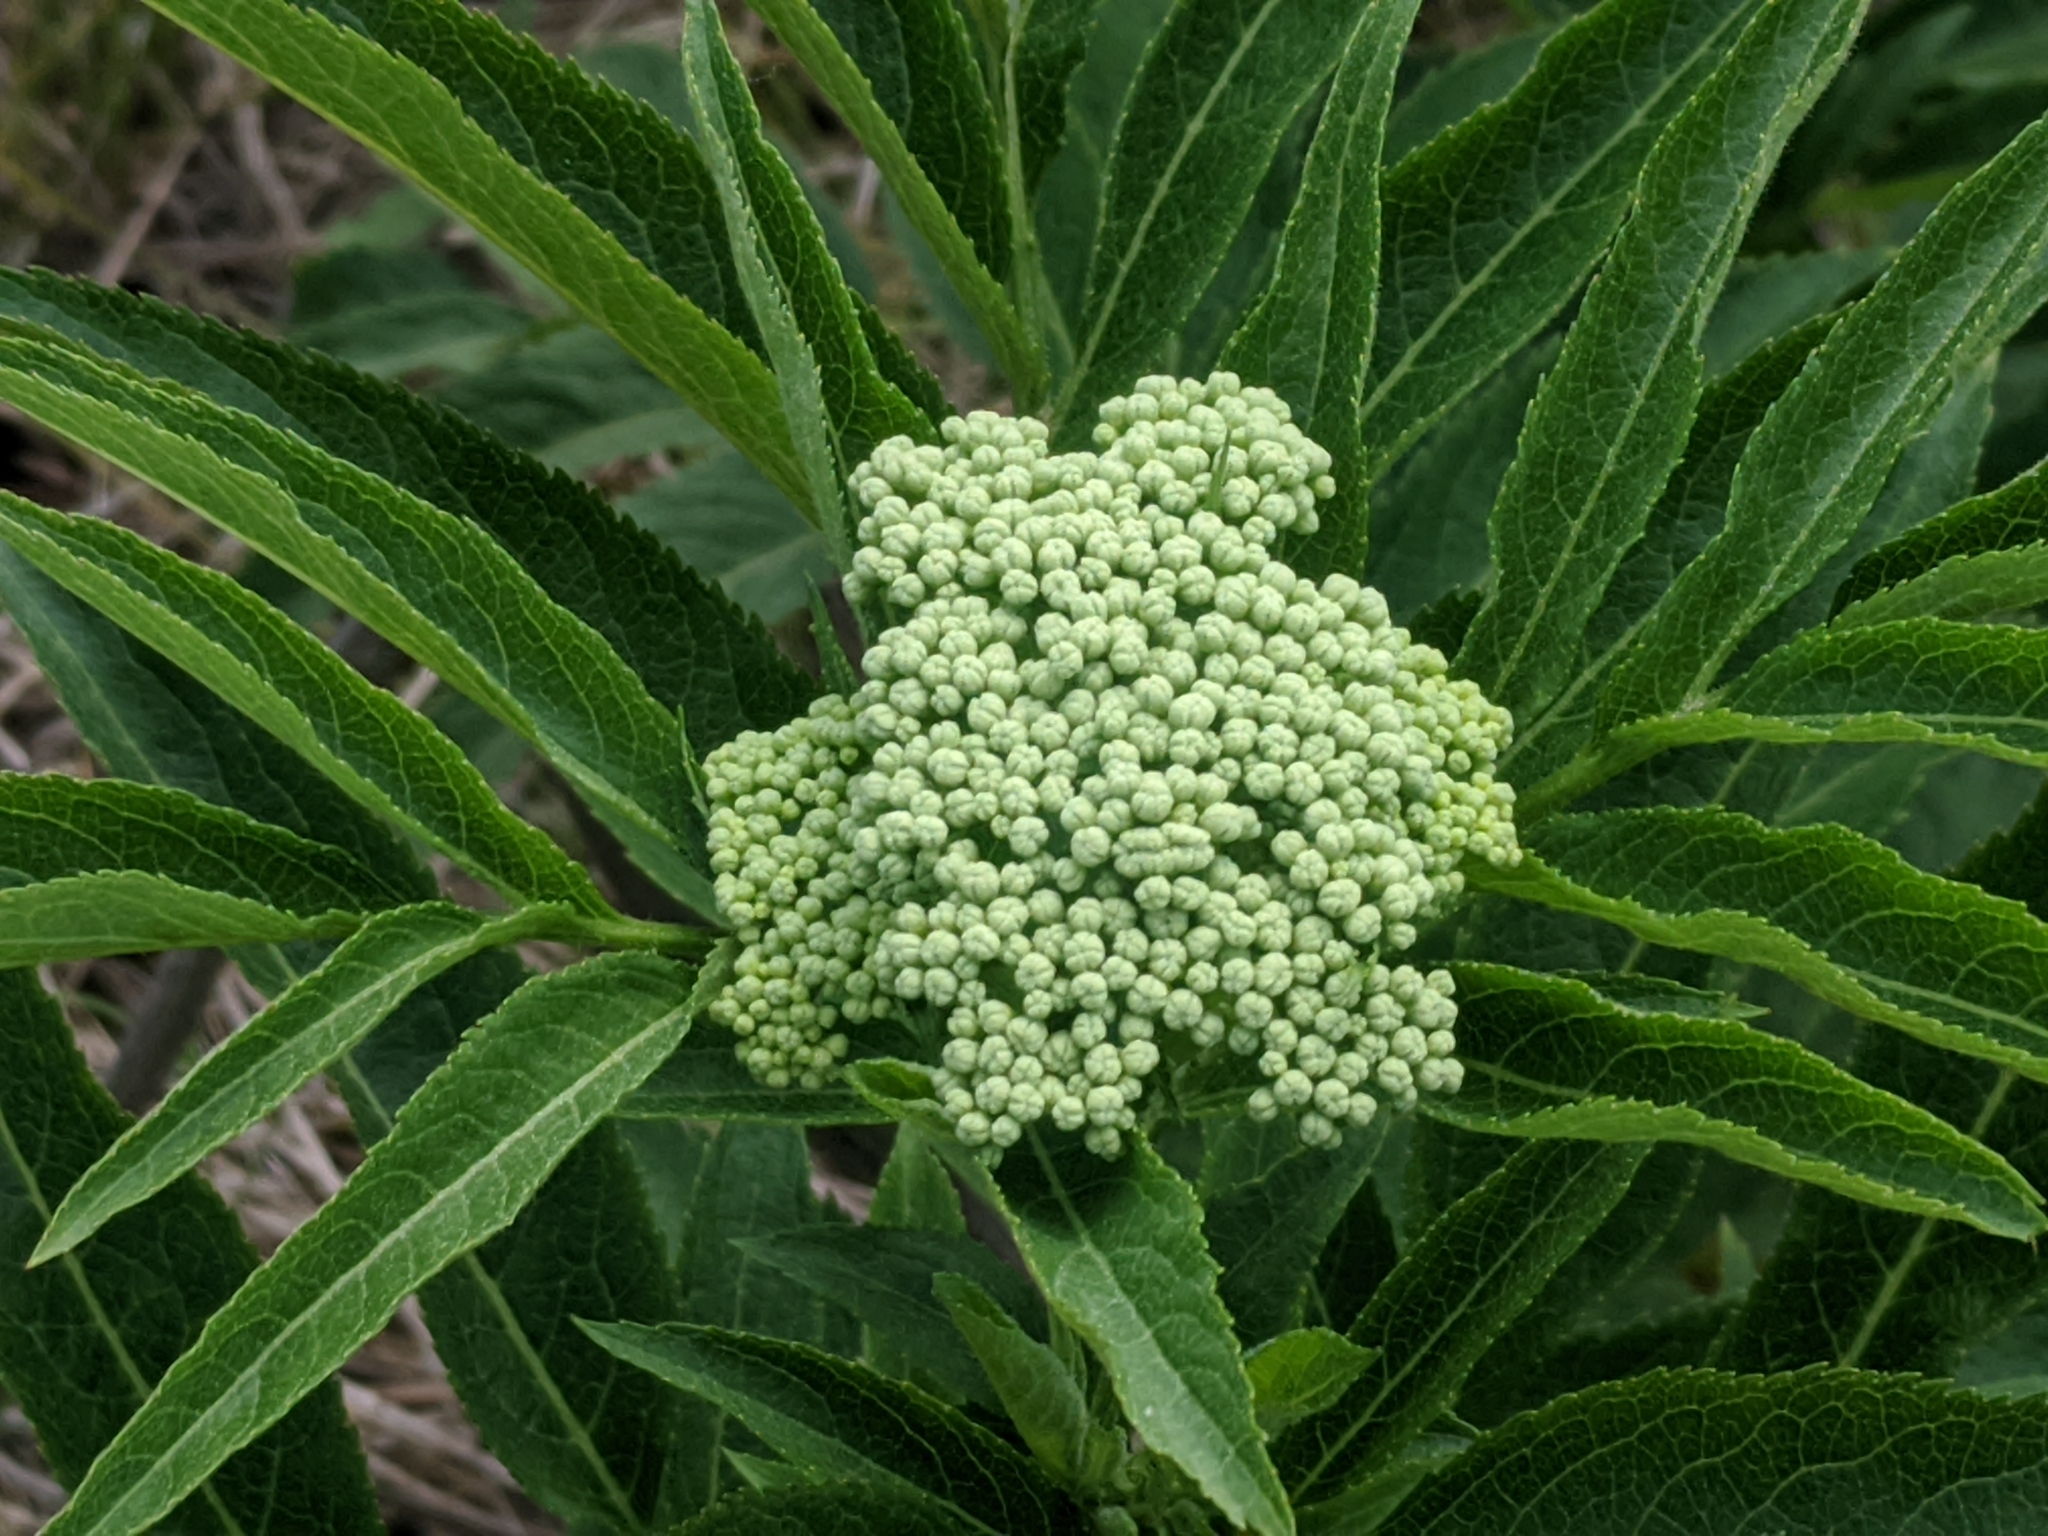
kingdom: Plantae
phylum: Tracheophyta
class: Magnoliopsida
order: Dipsacales
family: Viburnaceae
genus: Sambucus
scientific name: Sambucus ebulus
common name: Dwarf elder
